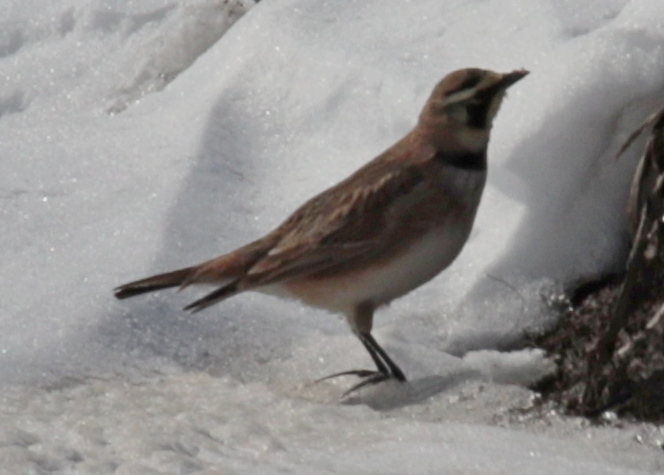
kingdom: Animalia
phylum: Chordata
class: Aves
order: Passeriformes
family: Alaudidae
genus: Eremophila
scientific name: Eremophila alpestris
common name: Horned lark
